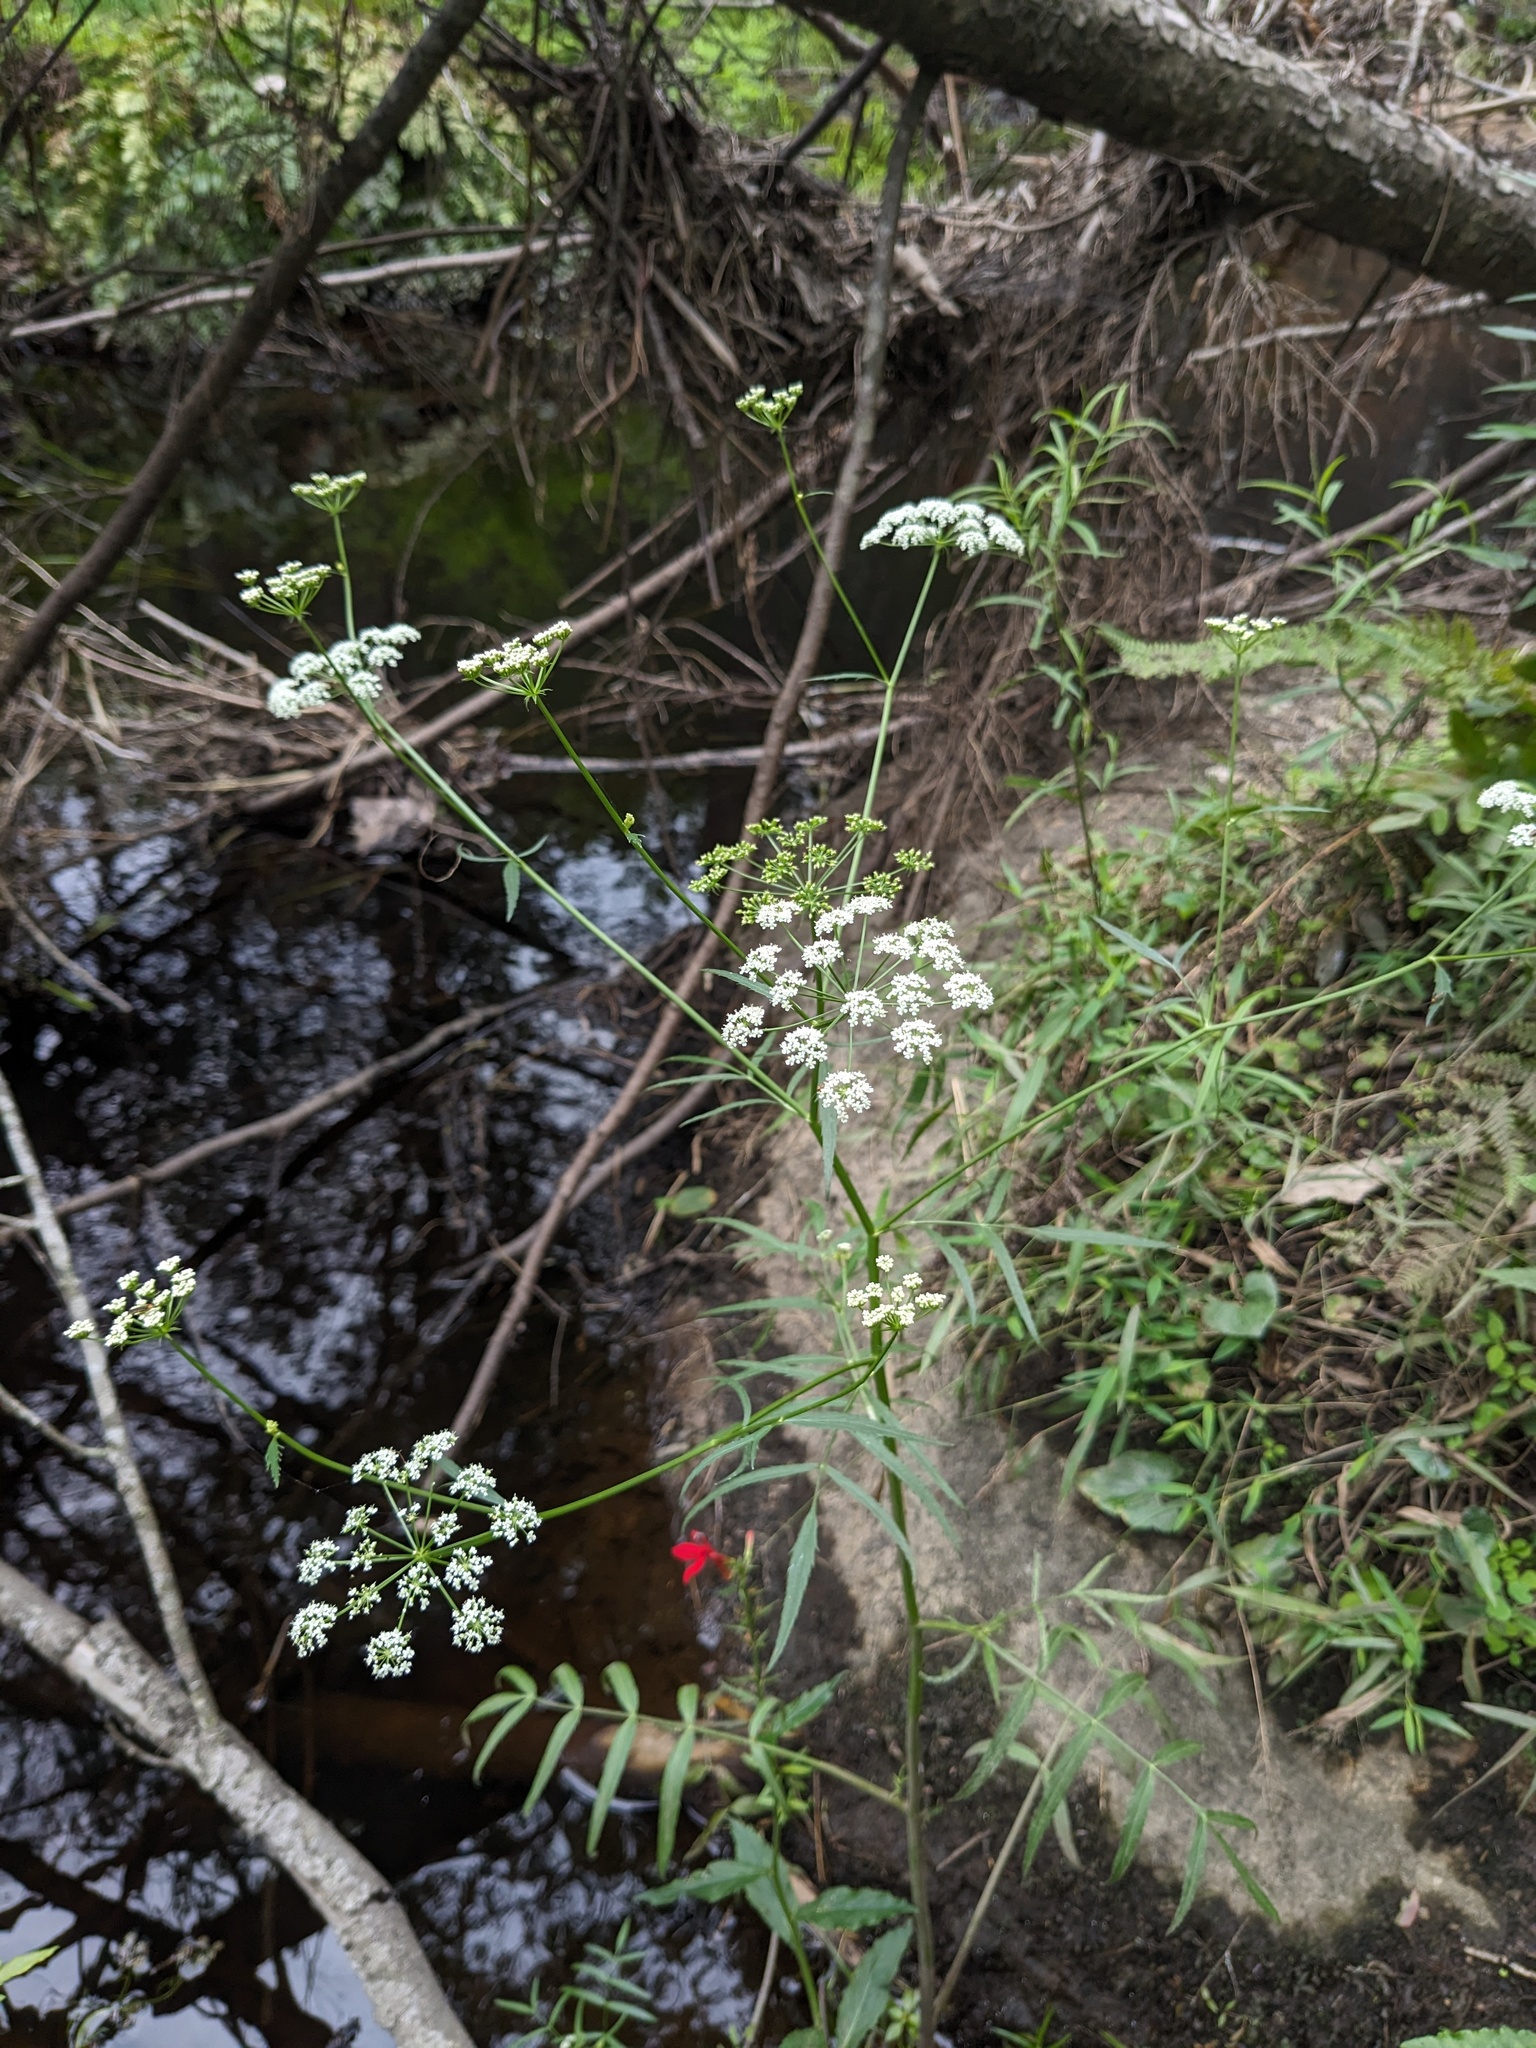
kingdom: Plantae
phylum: Tracheophyta
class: Magnoliopsida
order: Apiales
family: Apiaceae
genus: Sium
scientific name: Sium suave
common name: Hemlock water-parsnip
